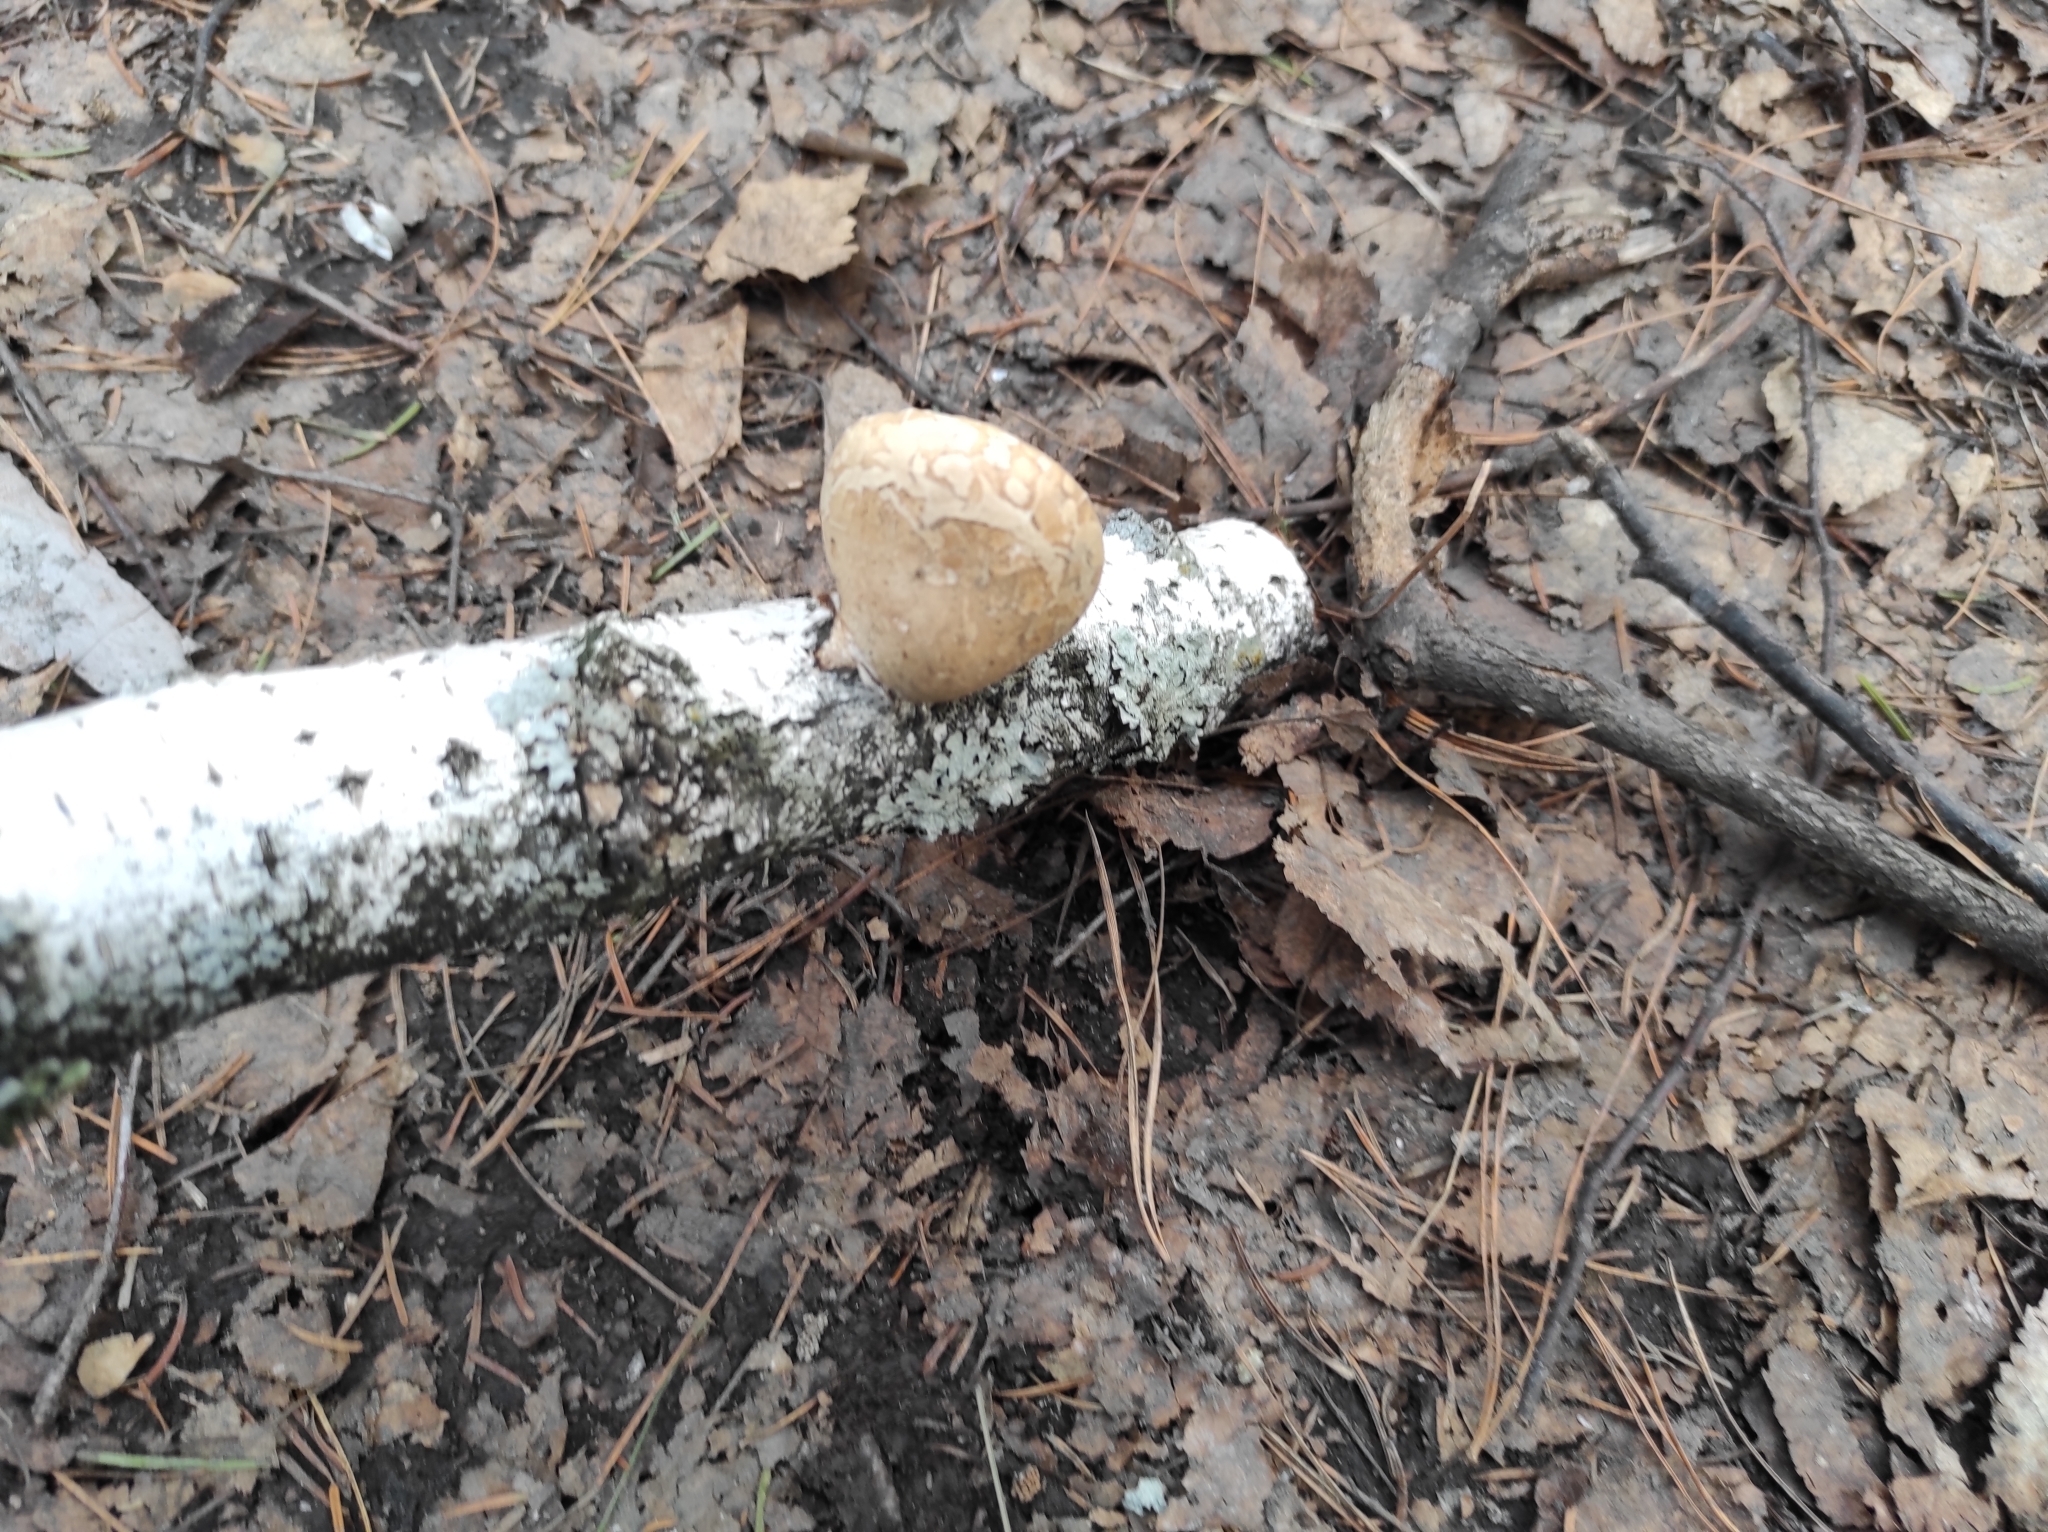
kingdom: Fungi
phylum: Basidiomycota
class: Agaricomycetes
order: Polyporales
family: Fomitopsidaceae
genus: Fomitopsis
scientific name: Fomitopsis betulina
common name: Birch polypore
